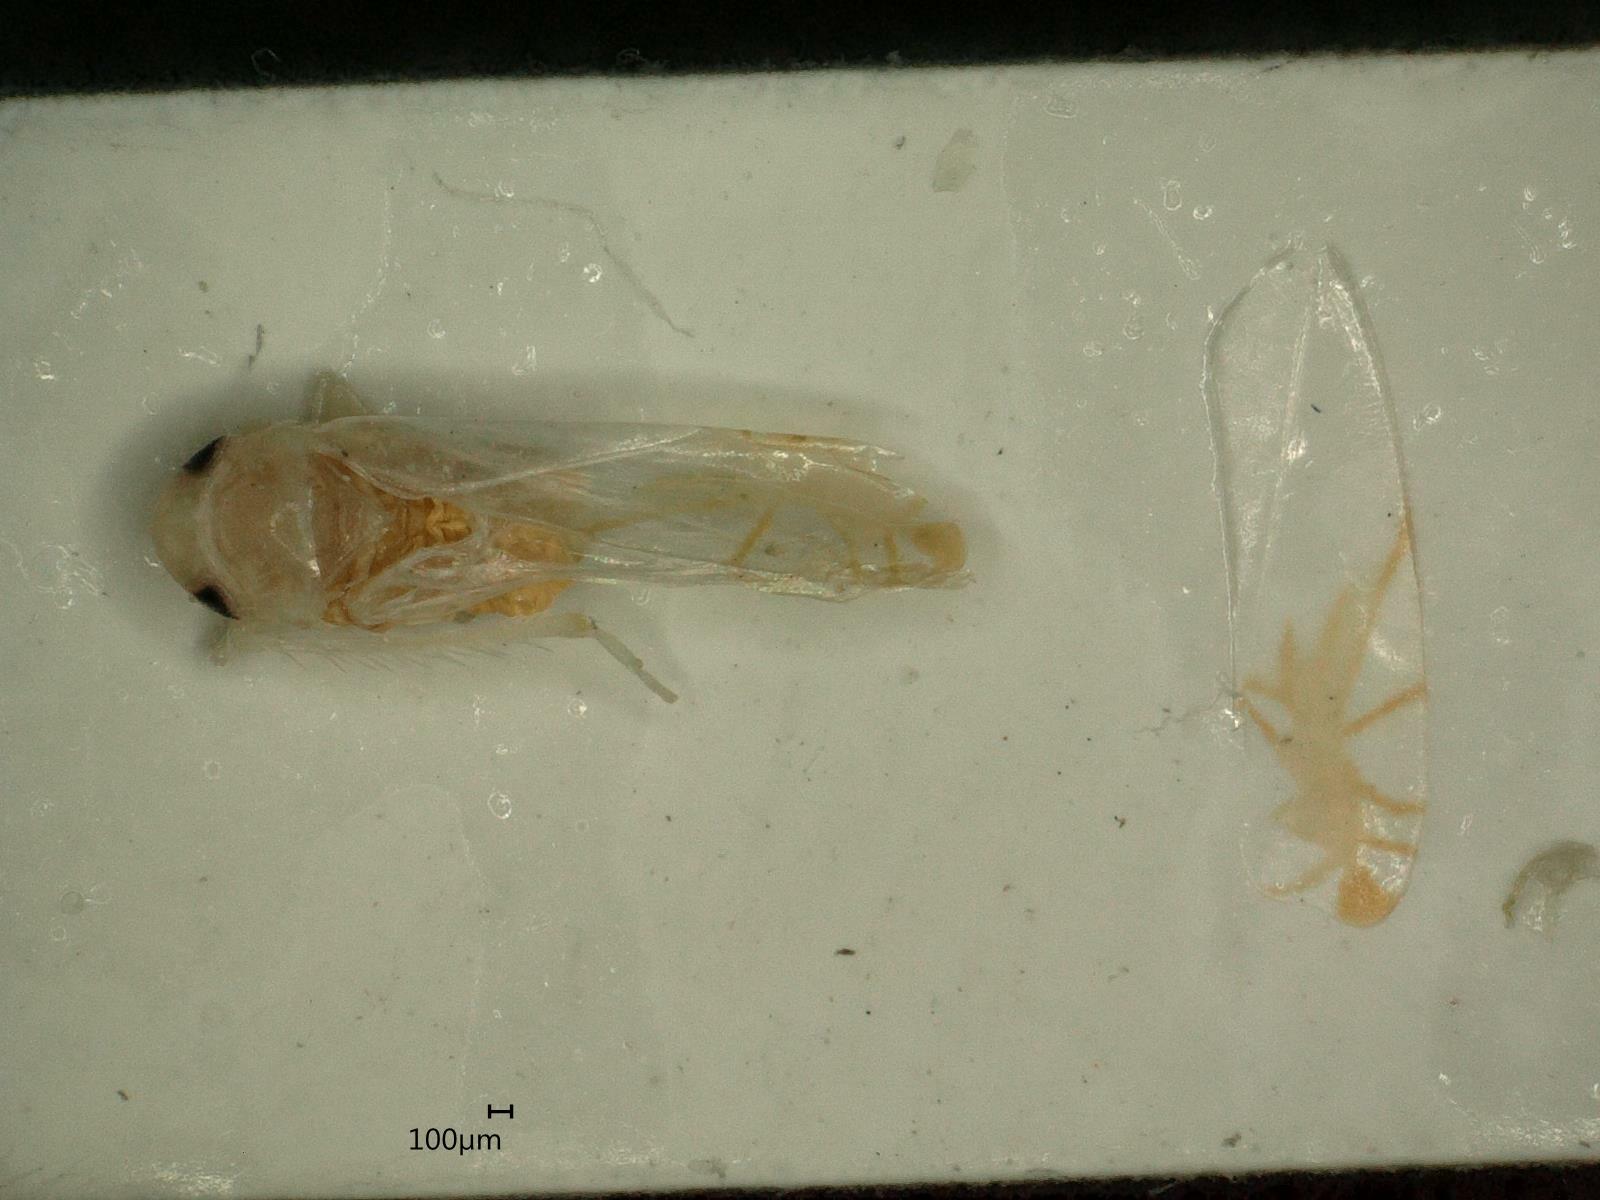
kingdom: Animalia
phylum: Arthropoda
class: Insecta
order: Hemiptera
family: Cicadellidae
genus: Aguriahana
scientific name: Aguriahana stellulata
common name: Leafhopper
